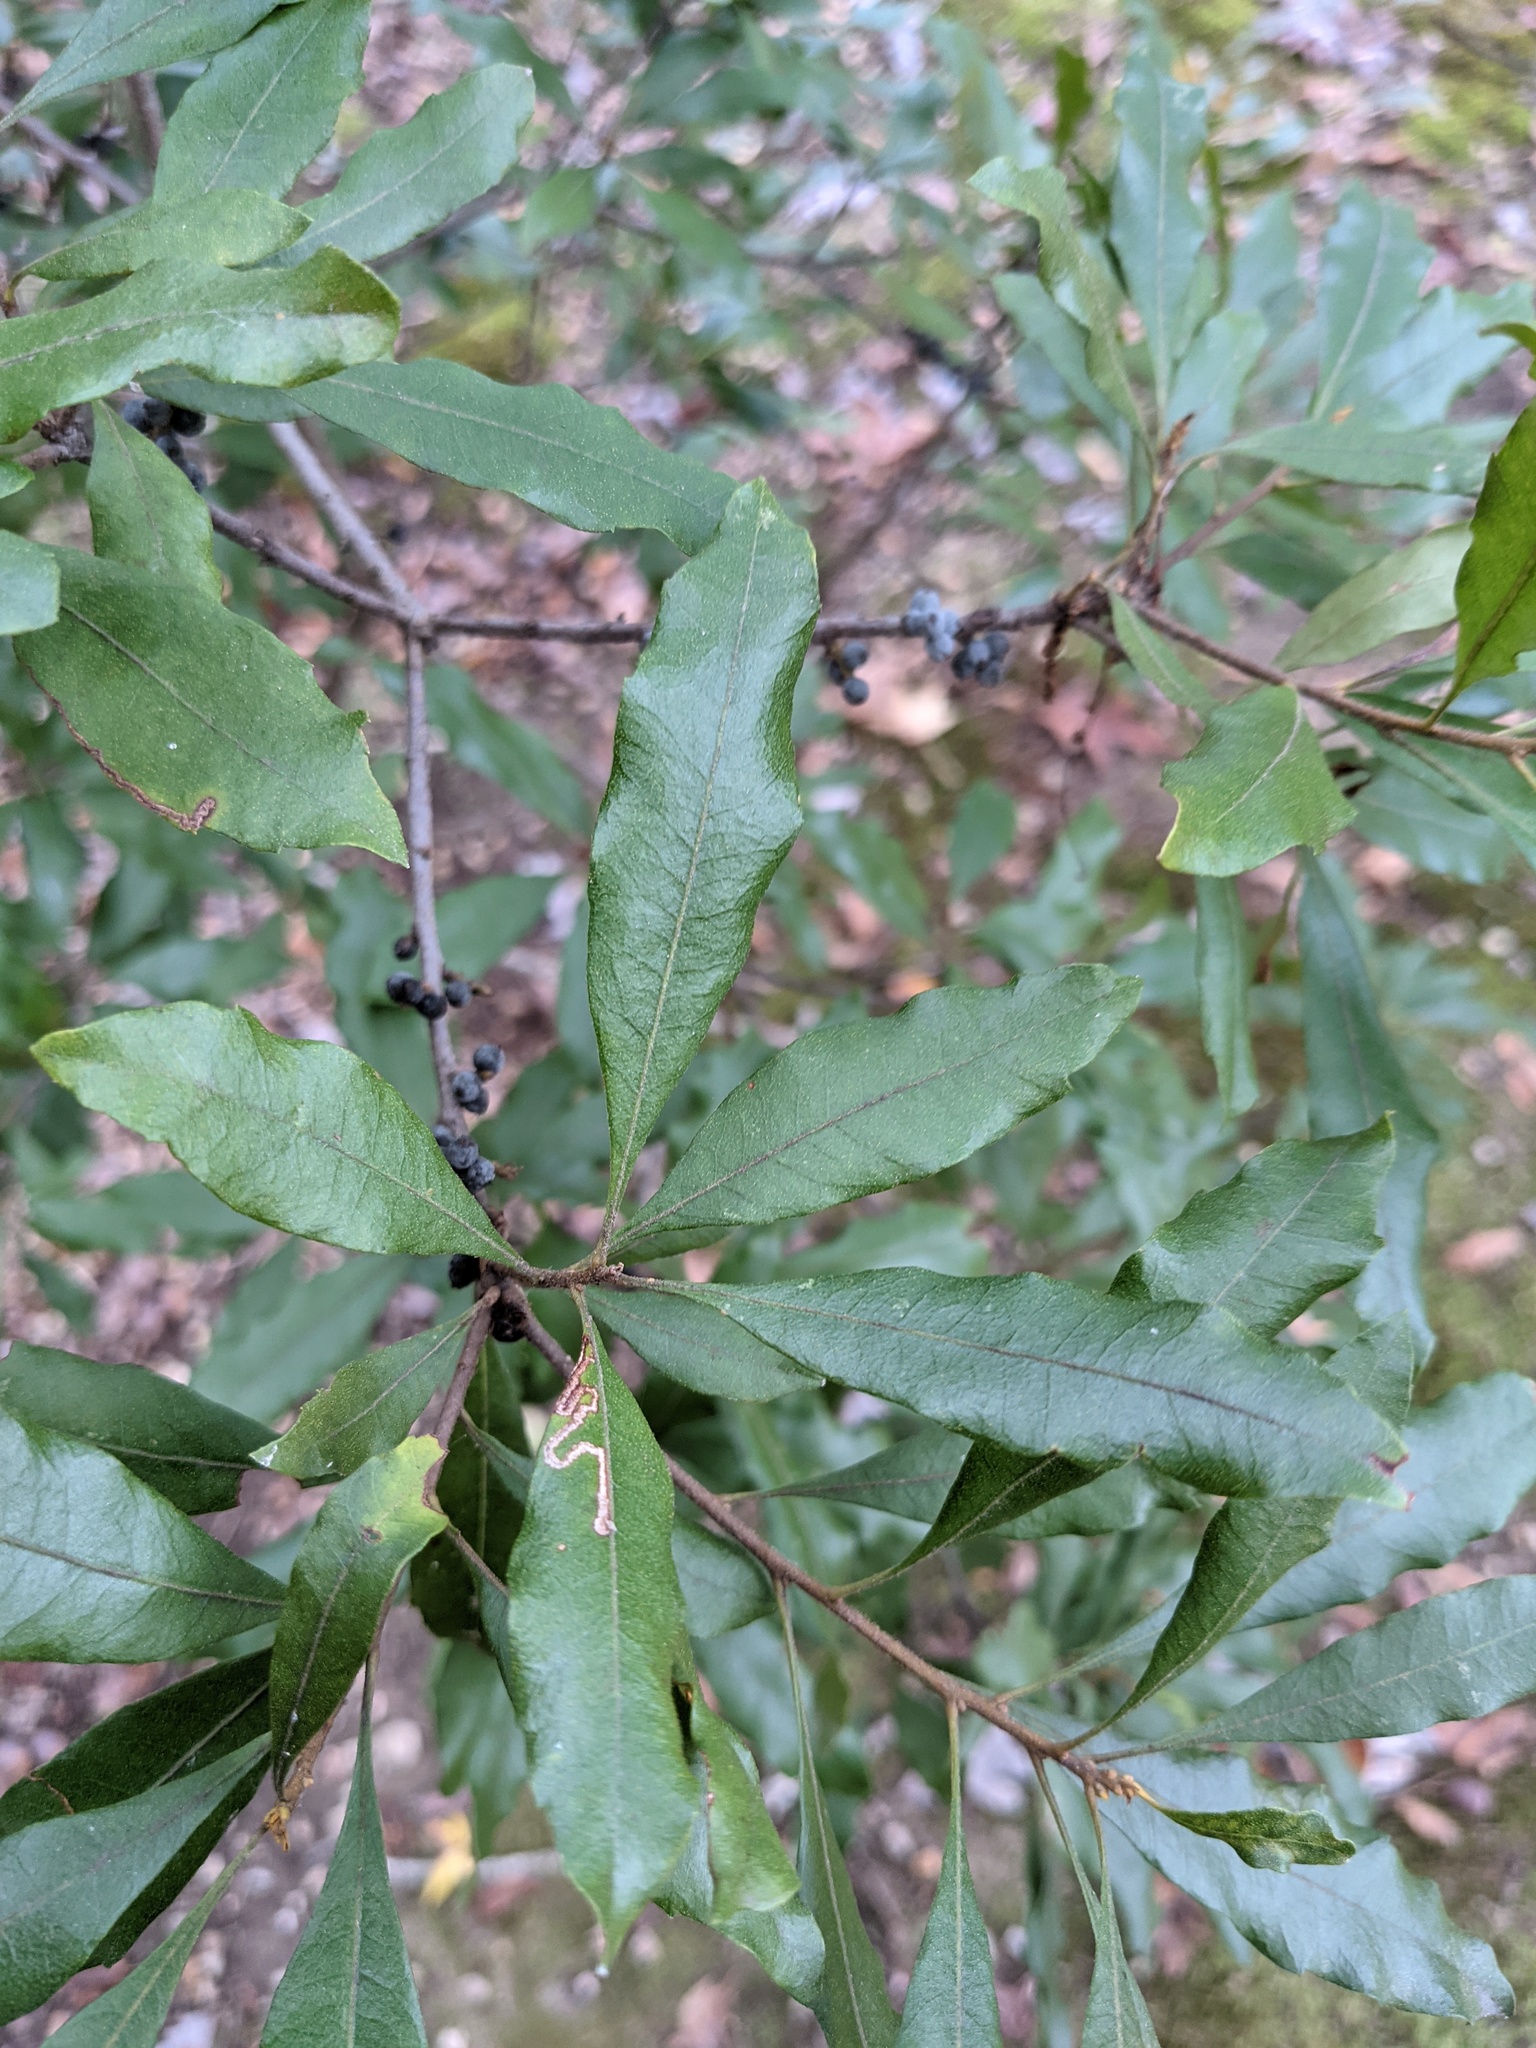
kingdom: Plantae
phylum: Tracheophyta
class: Magnoliopsida
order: Fagales
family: Myricaceae
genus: Morella
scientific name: Morella cerifera
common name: Wax myrtle
